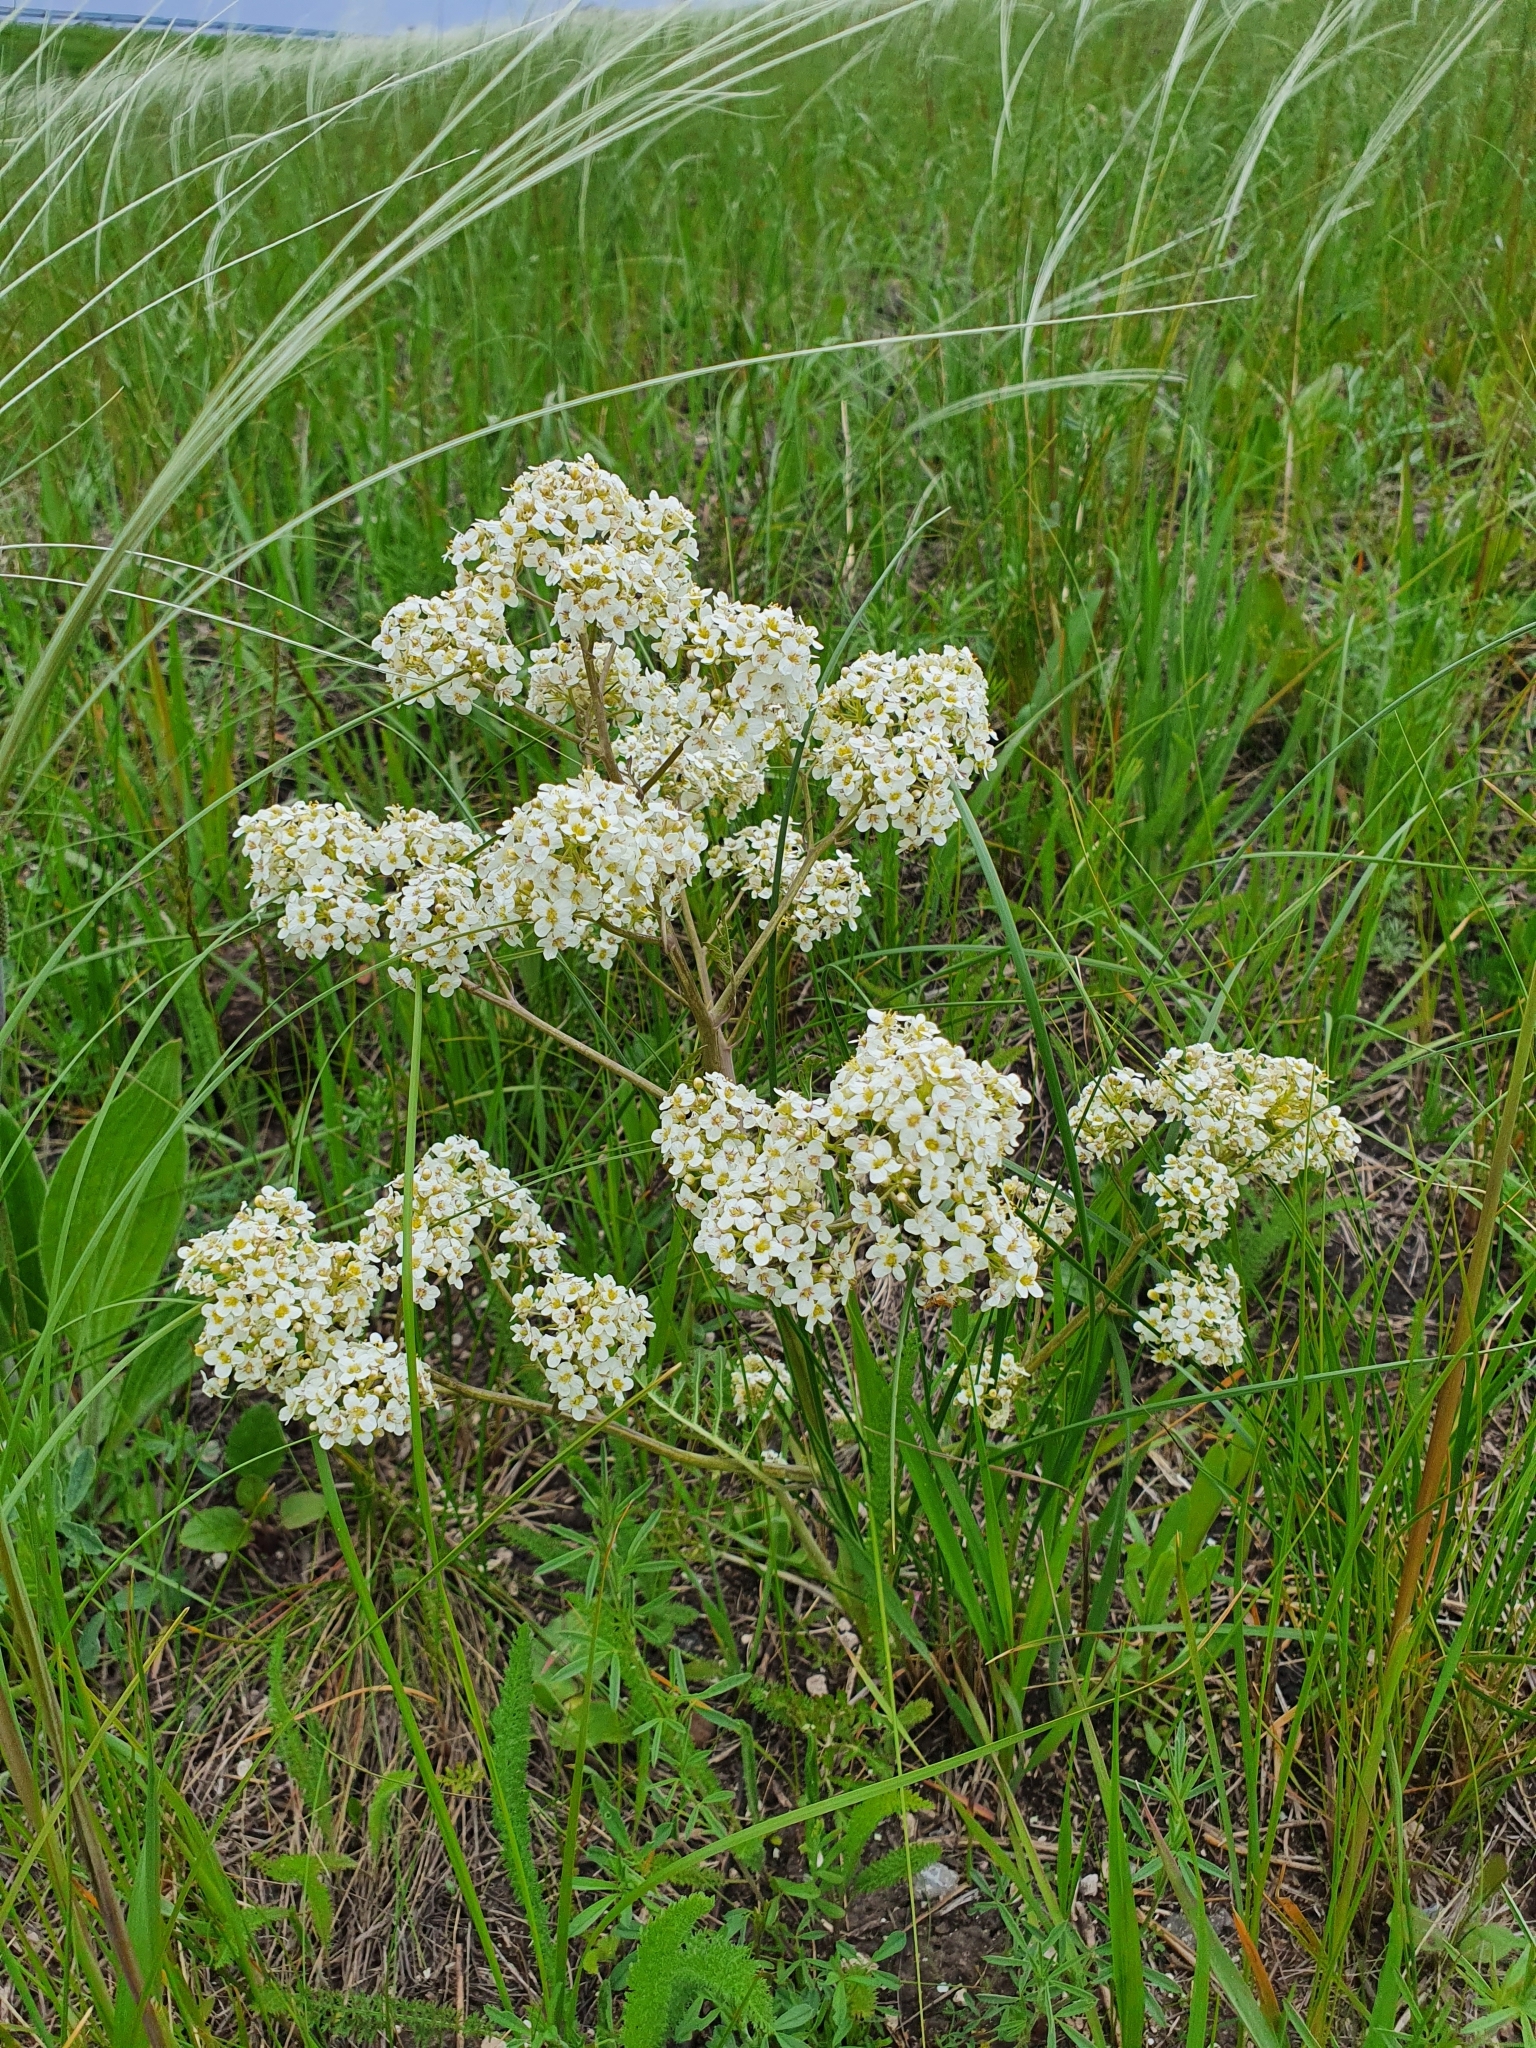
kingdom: Plantae
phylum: Tracheophyta
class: Magnoliopsida
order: Brassicales
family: Brassicaceae
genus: Crambe
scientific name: Crambe tataria
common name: Tartarian breadplant
